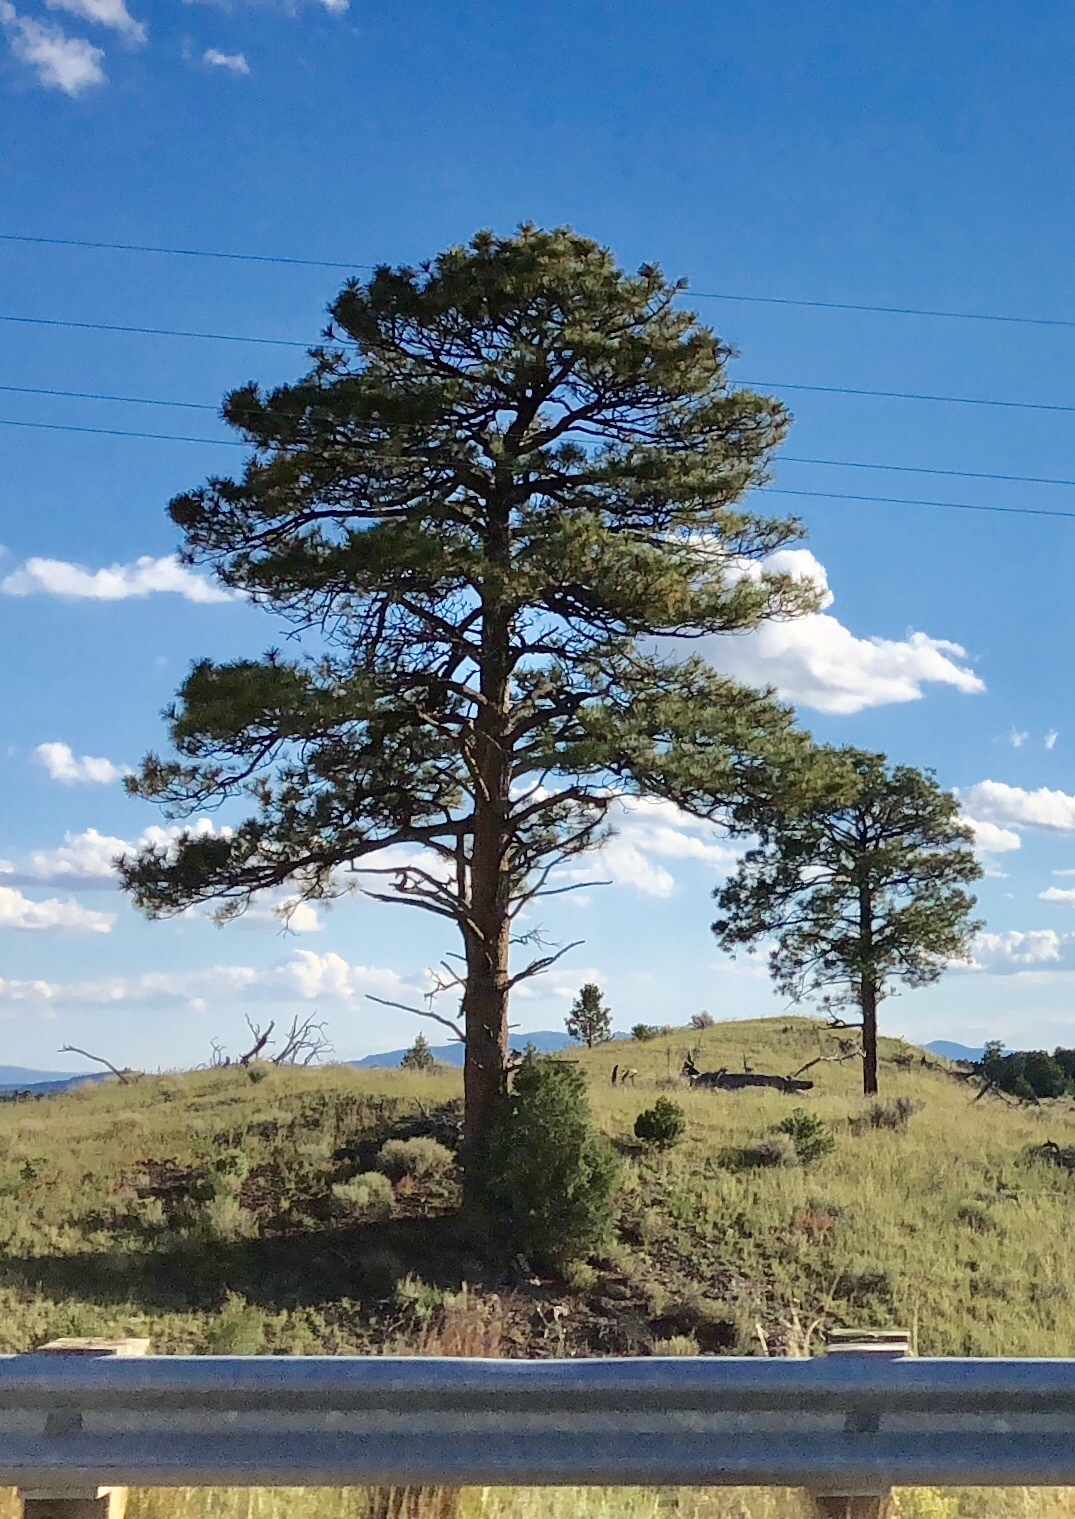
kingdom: Plantae
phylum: Tracheophyta
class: Pinopsida
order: Pinales
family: Pinaceae
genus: Pinus
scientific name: Pinus ponderosa
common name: Western yellow-pine
